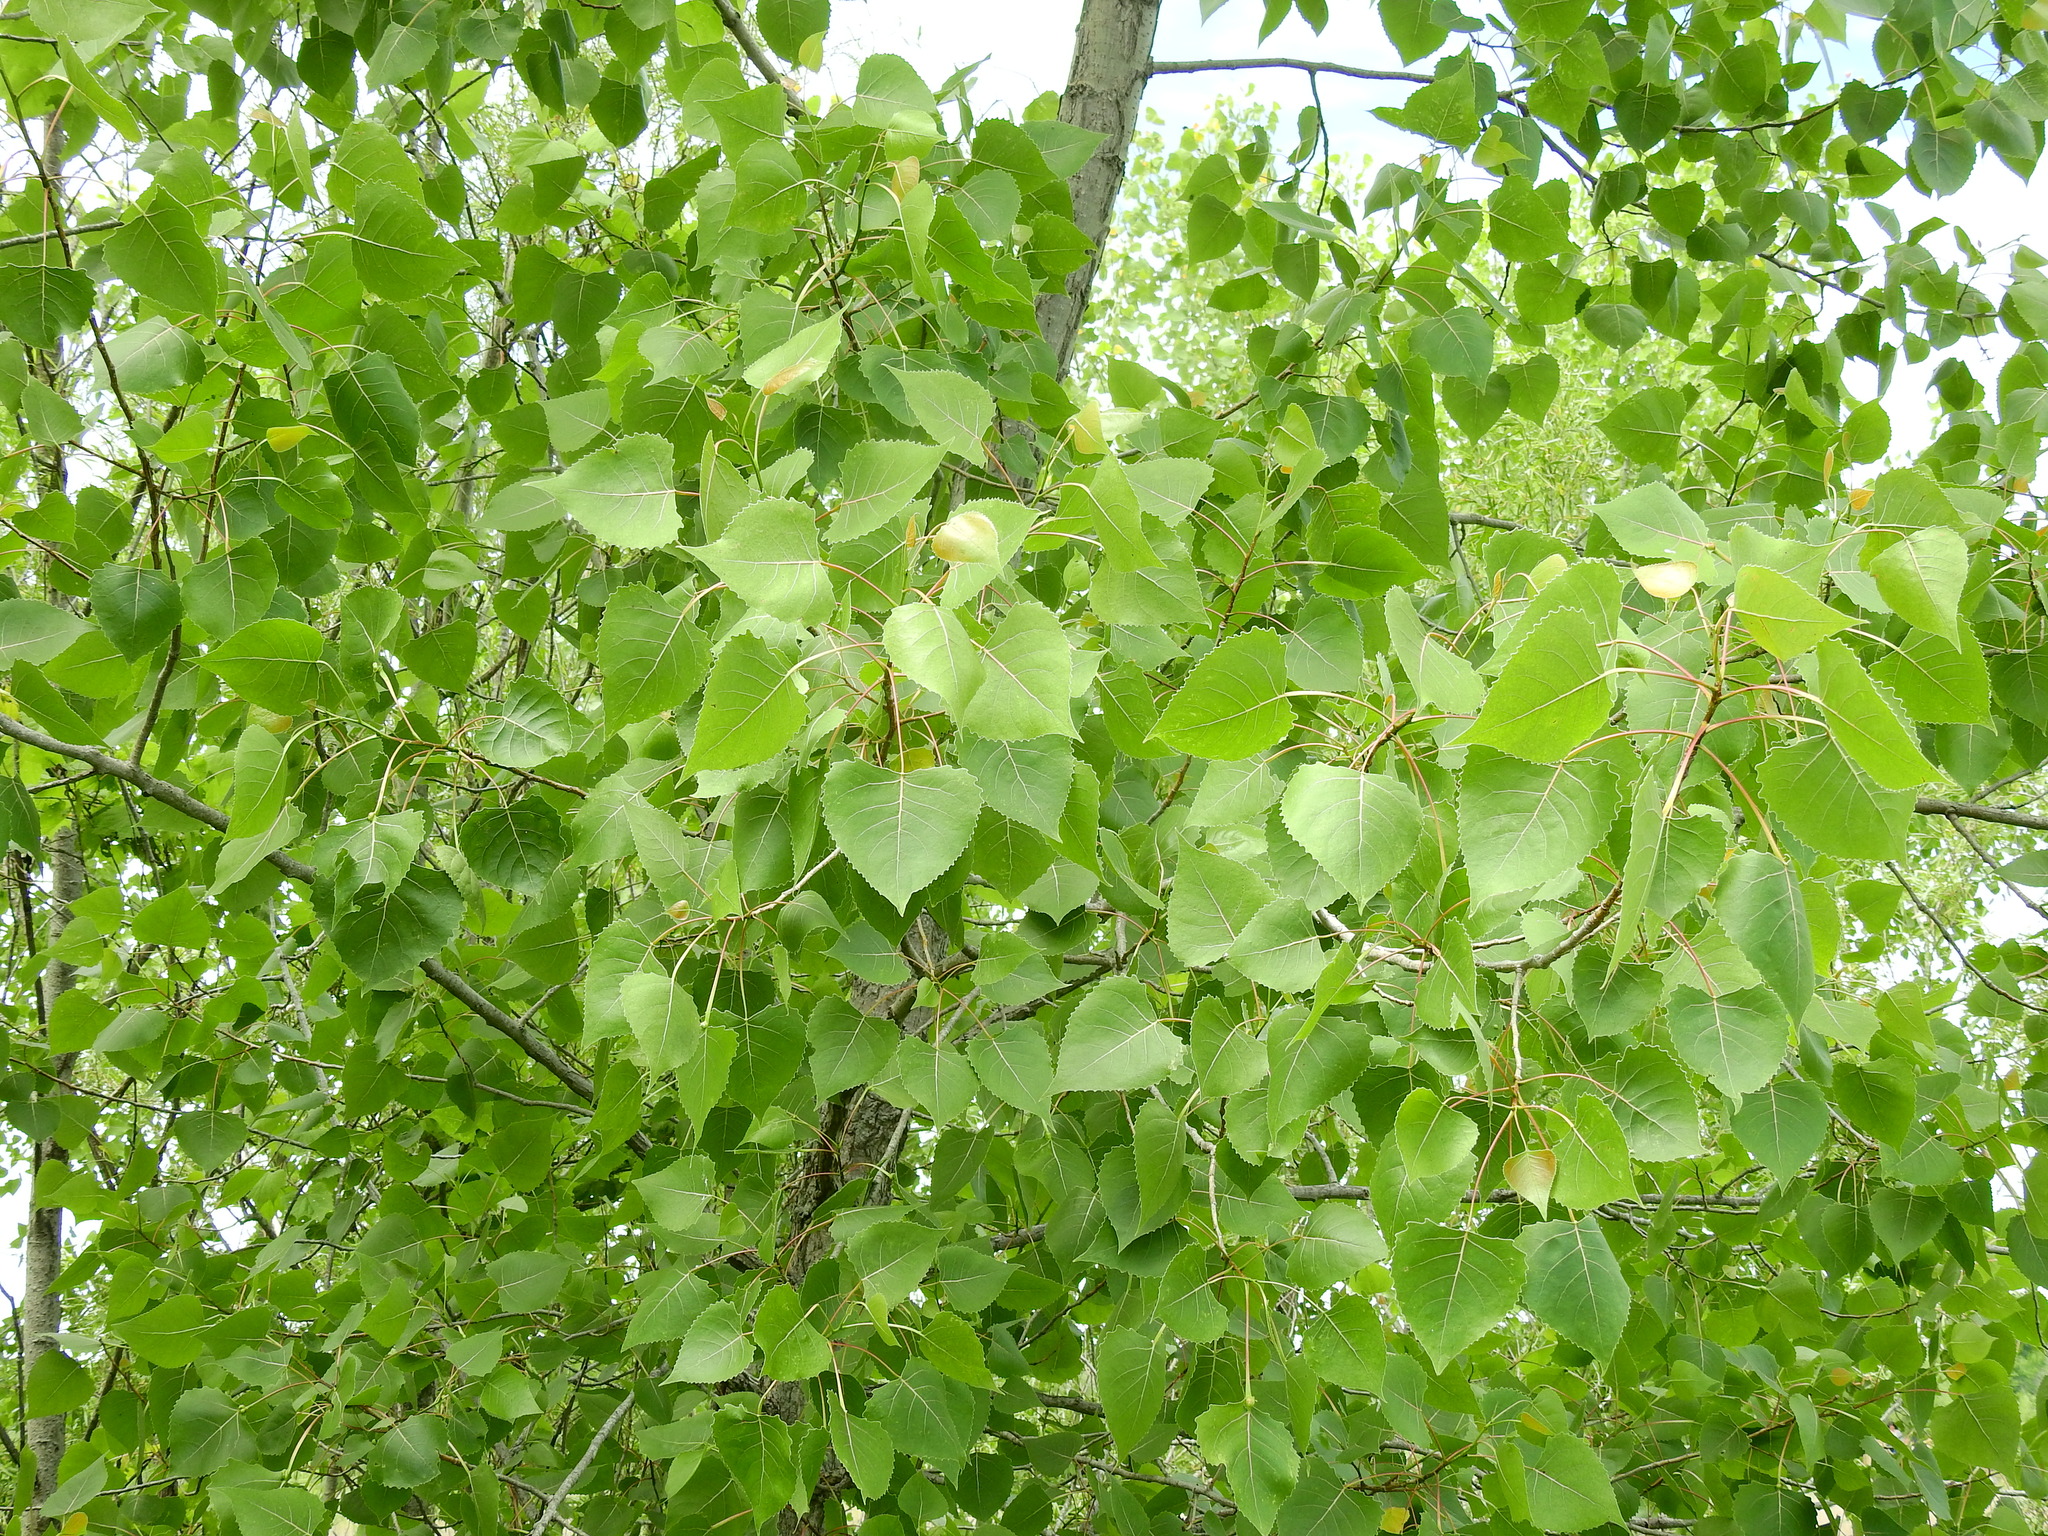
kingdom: Plantae
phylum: Tracheophyta
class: Magnoliopsida
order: Malpighiales
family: Salicaceae
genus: Populus
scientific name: Populus deltoides
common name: Eastern cottonwood
